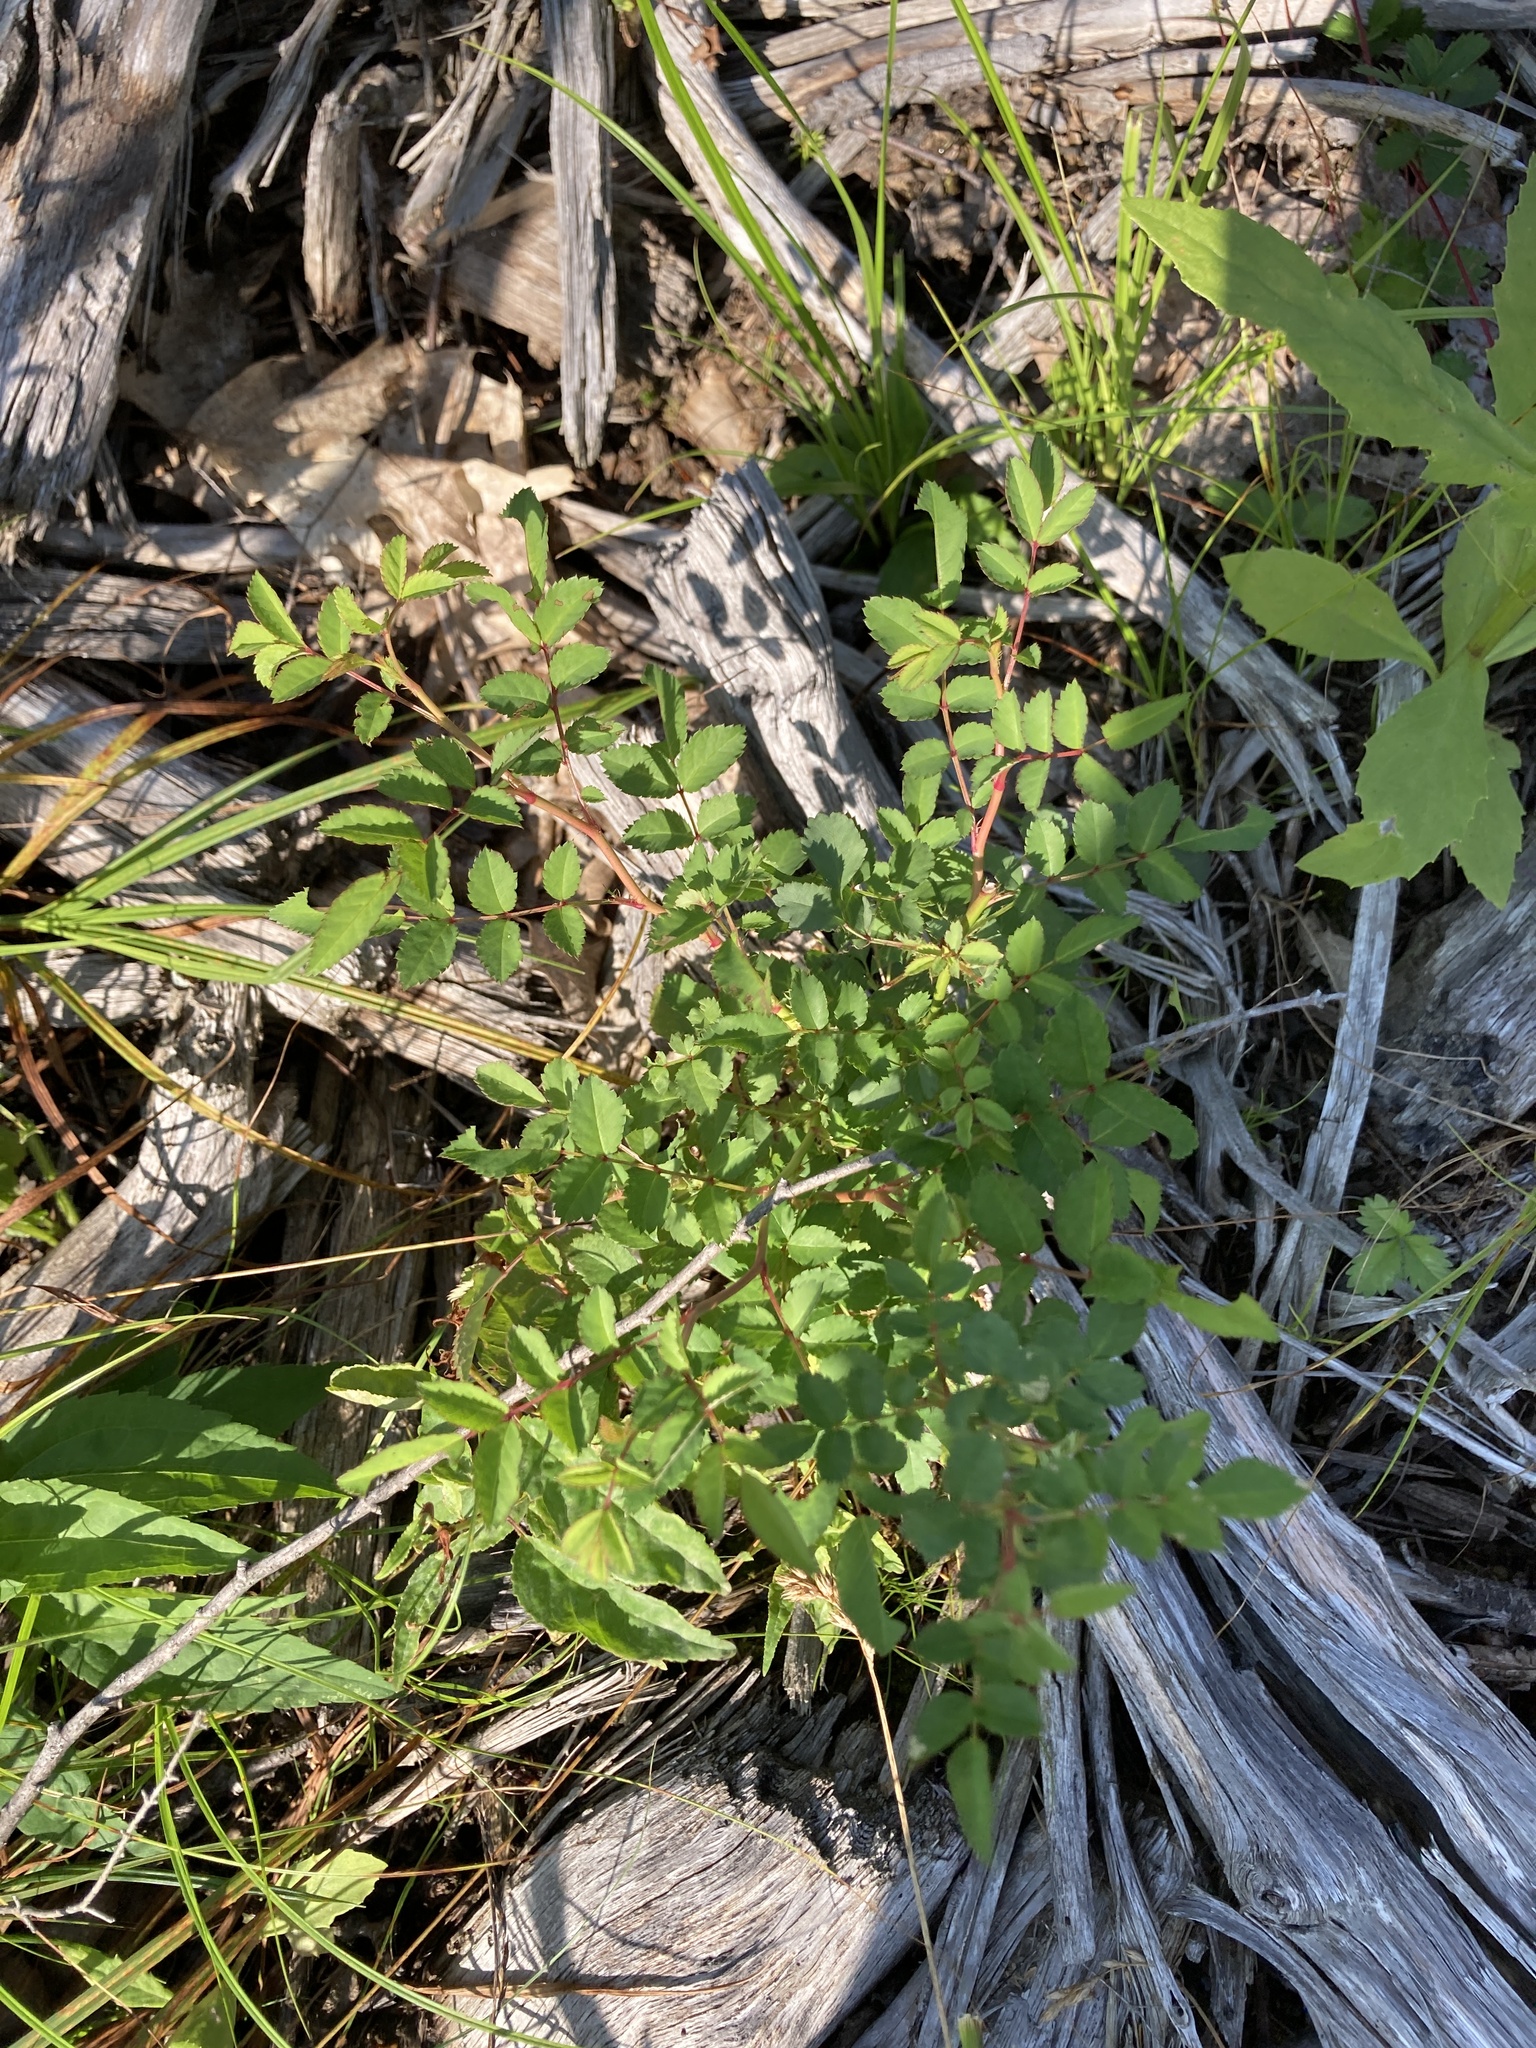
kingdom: Plantae
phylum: Tracheophyta
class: Magnoliopsida
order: Rosales
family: Rosaceae
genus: Rosa
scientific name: Rosa multiflora
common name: Multiflora rose
